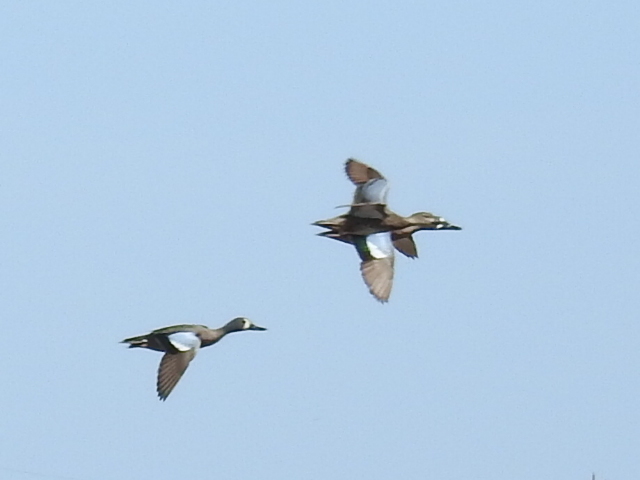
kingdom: Animalia
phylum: Chordata
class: Aves
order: Anseriformes
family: Anatidae
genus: Spatula
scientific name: Spatula discors
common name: Blue-winged teal
